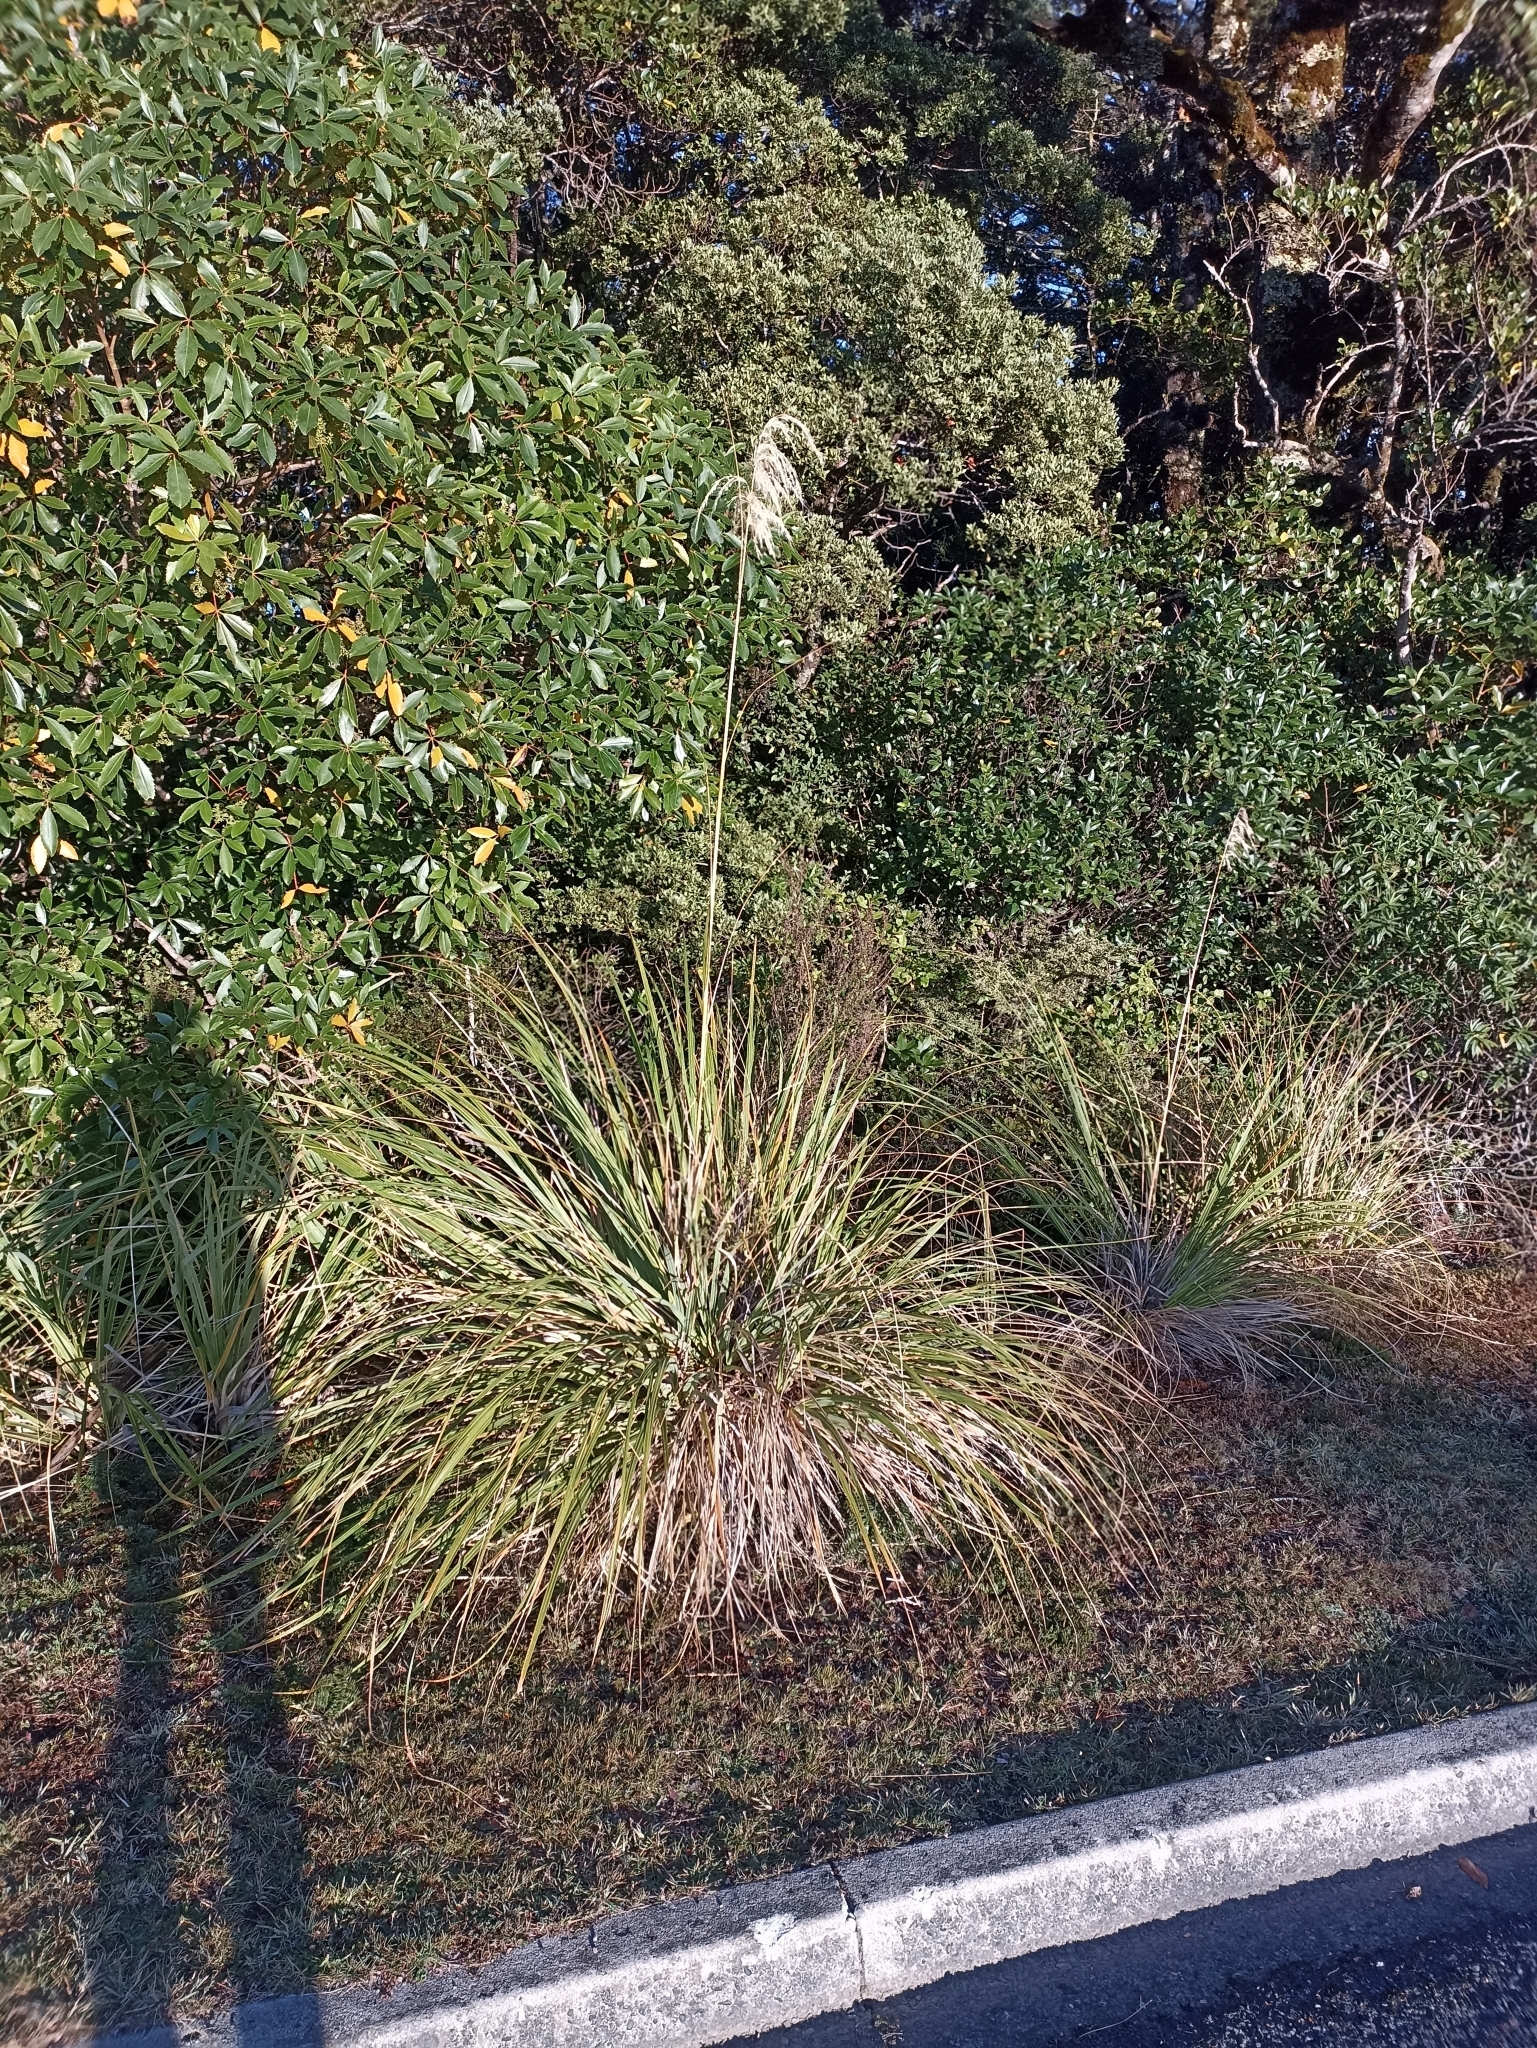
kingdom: Plantae
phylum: Tracheophyta
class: Liliopsida
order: Poales
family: Poaceae
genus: Austroderia
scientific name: Austroderia fulvida
